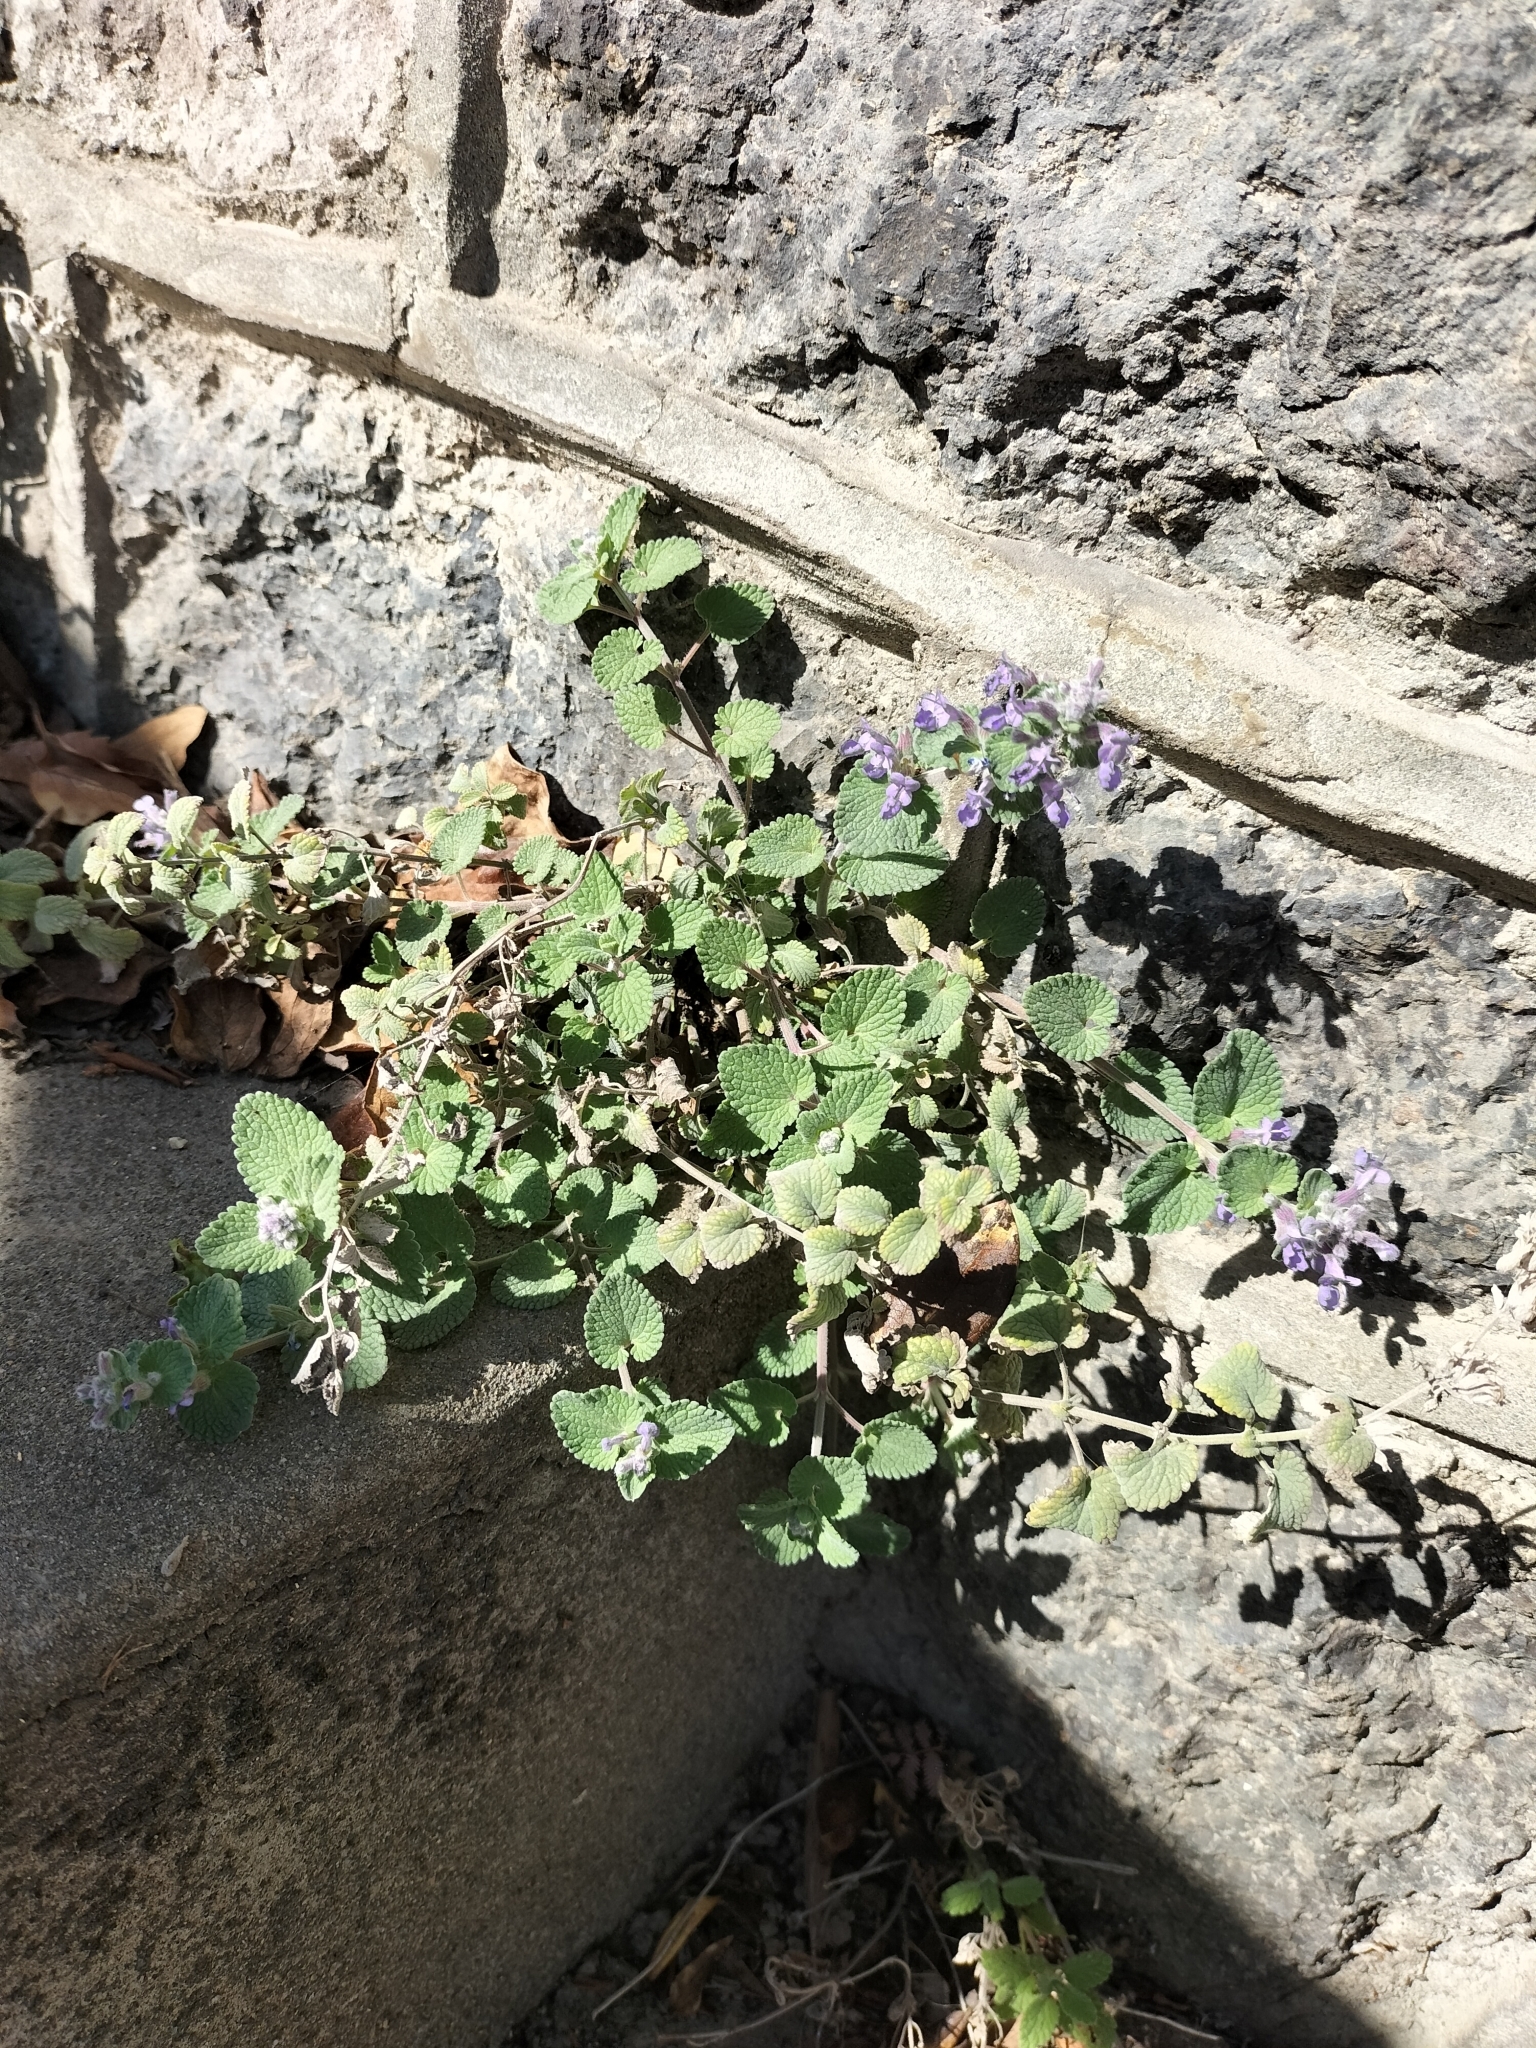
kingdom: Plantae
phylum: Tracheophyta
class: Magnoliopsida
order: Lamiales
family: Lamiaceae
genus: Nepeta
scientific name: Nepeta faassenii
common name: Catmint
